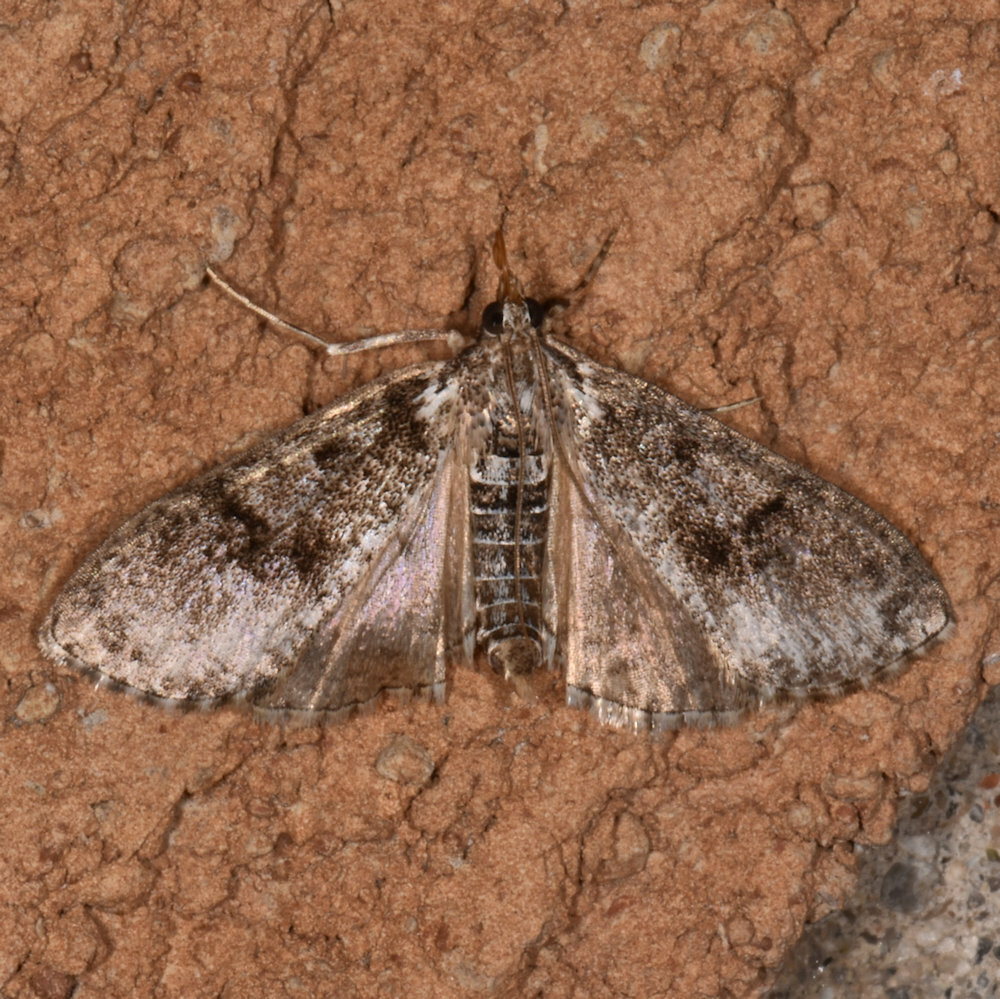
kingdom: Animalia
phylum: Arthropoda
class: Insecta
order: Lepidoptera
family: Crambidae
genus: Palpita
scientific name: Palpita magniferalis
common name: Splendid palpita moth
